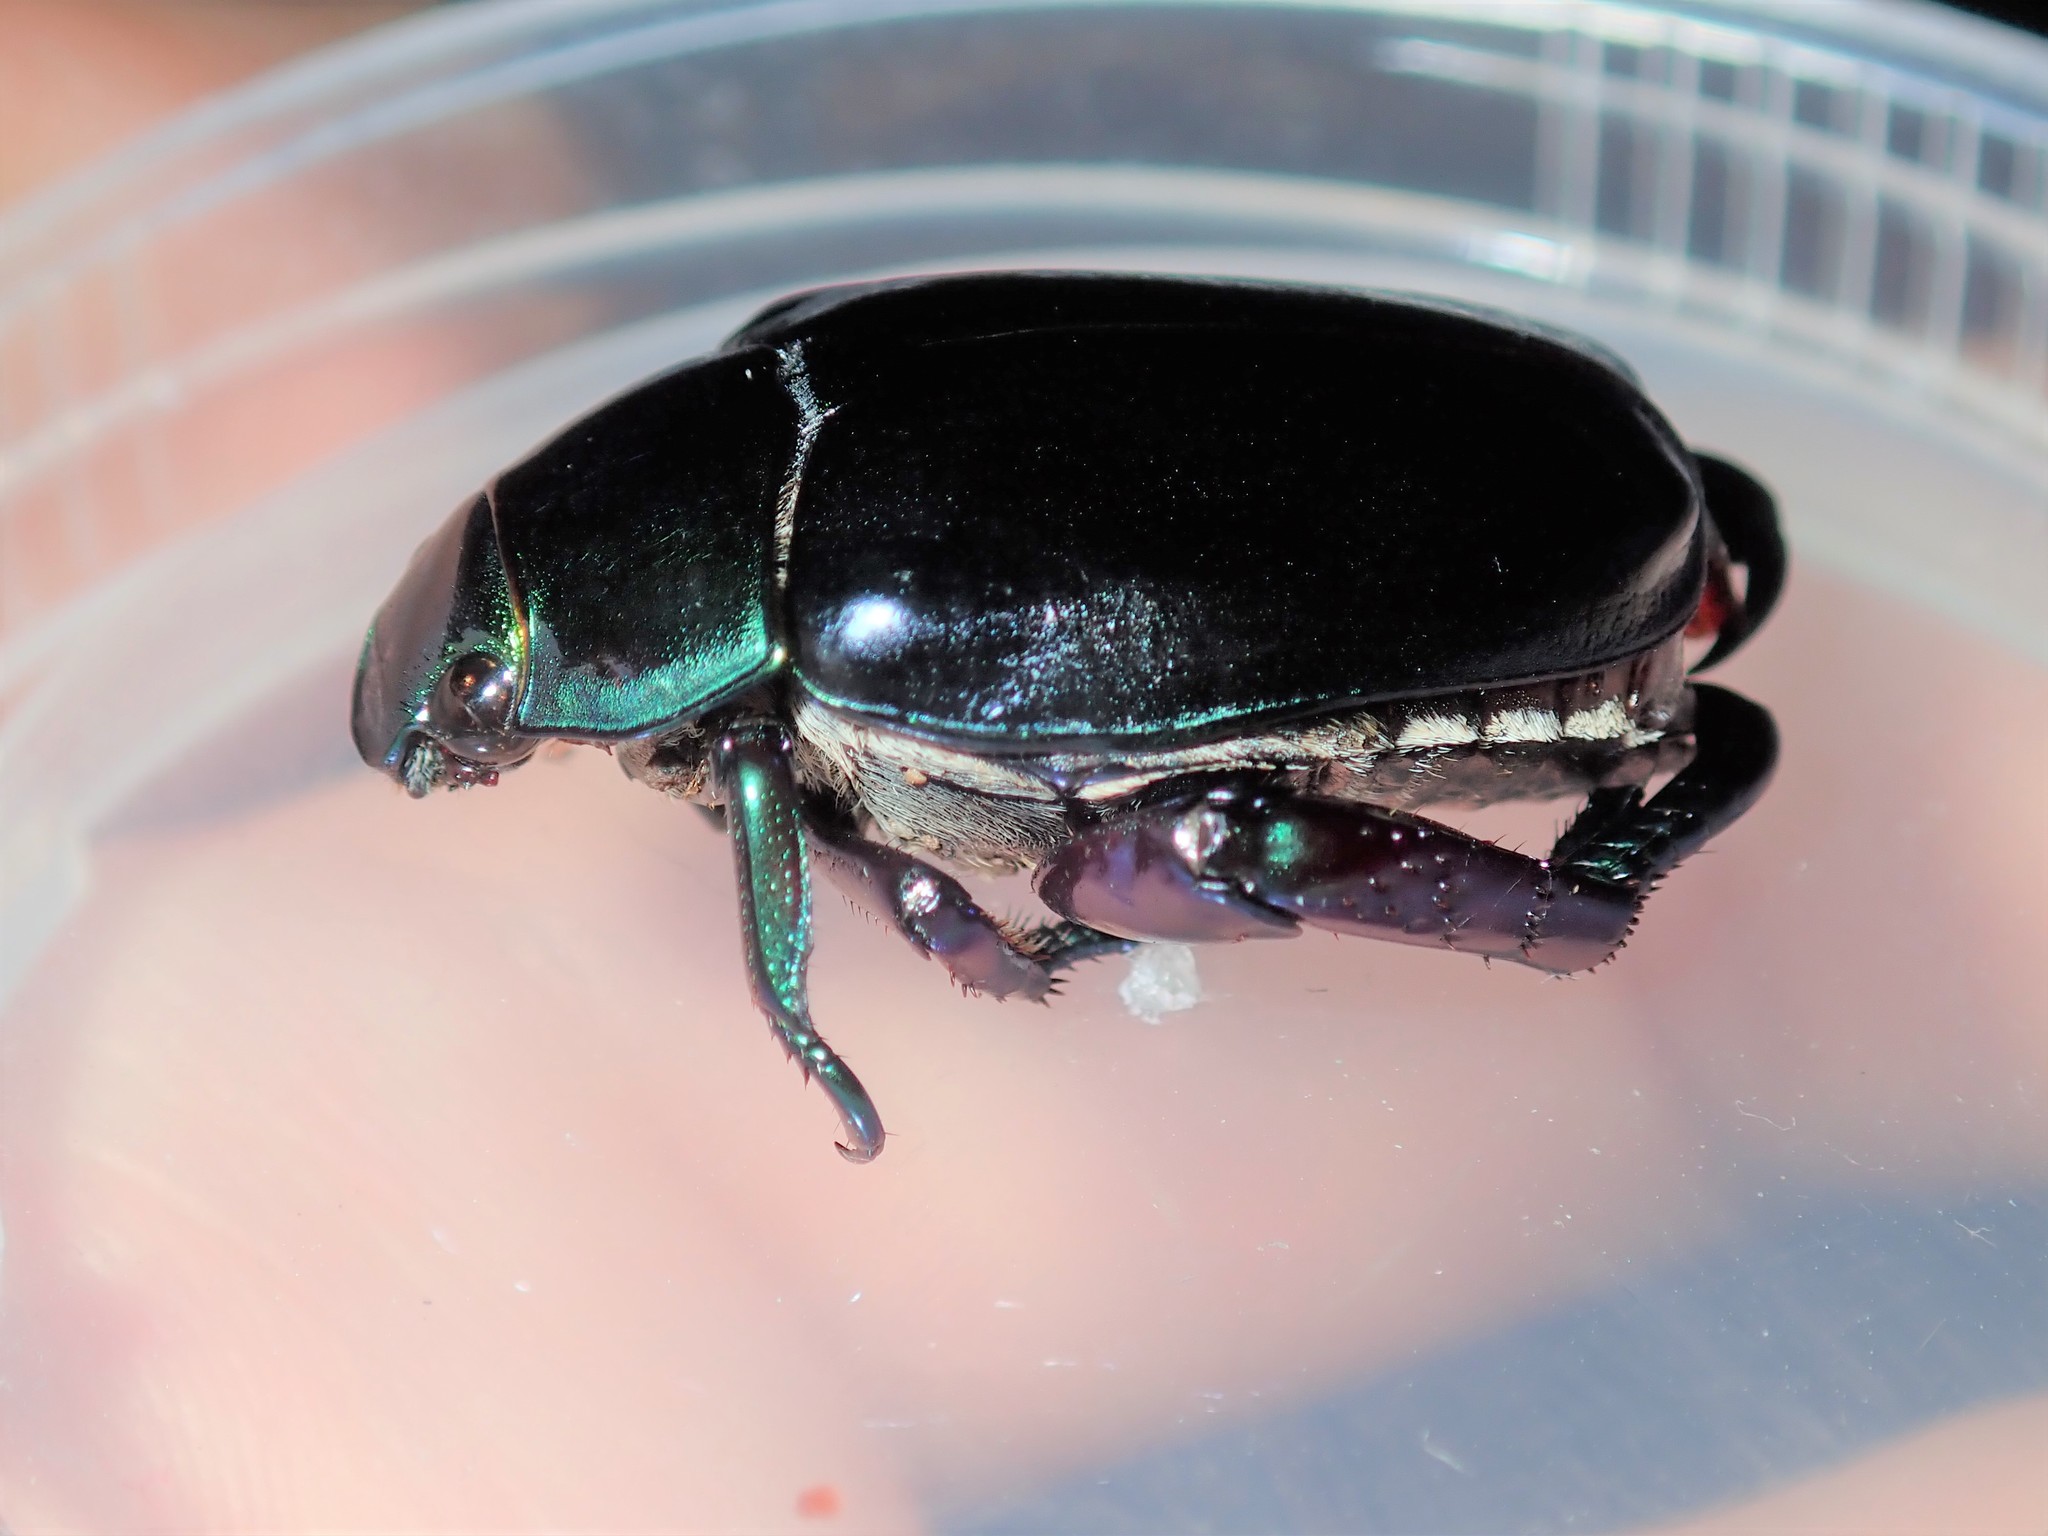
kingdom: Animalia
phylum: Arthropoda
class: Insecta
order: Coleoptera
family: Scarabaeidae
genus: Repsimus
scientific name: Repsimus aeneus
